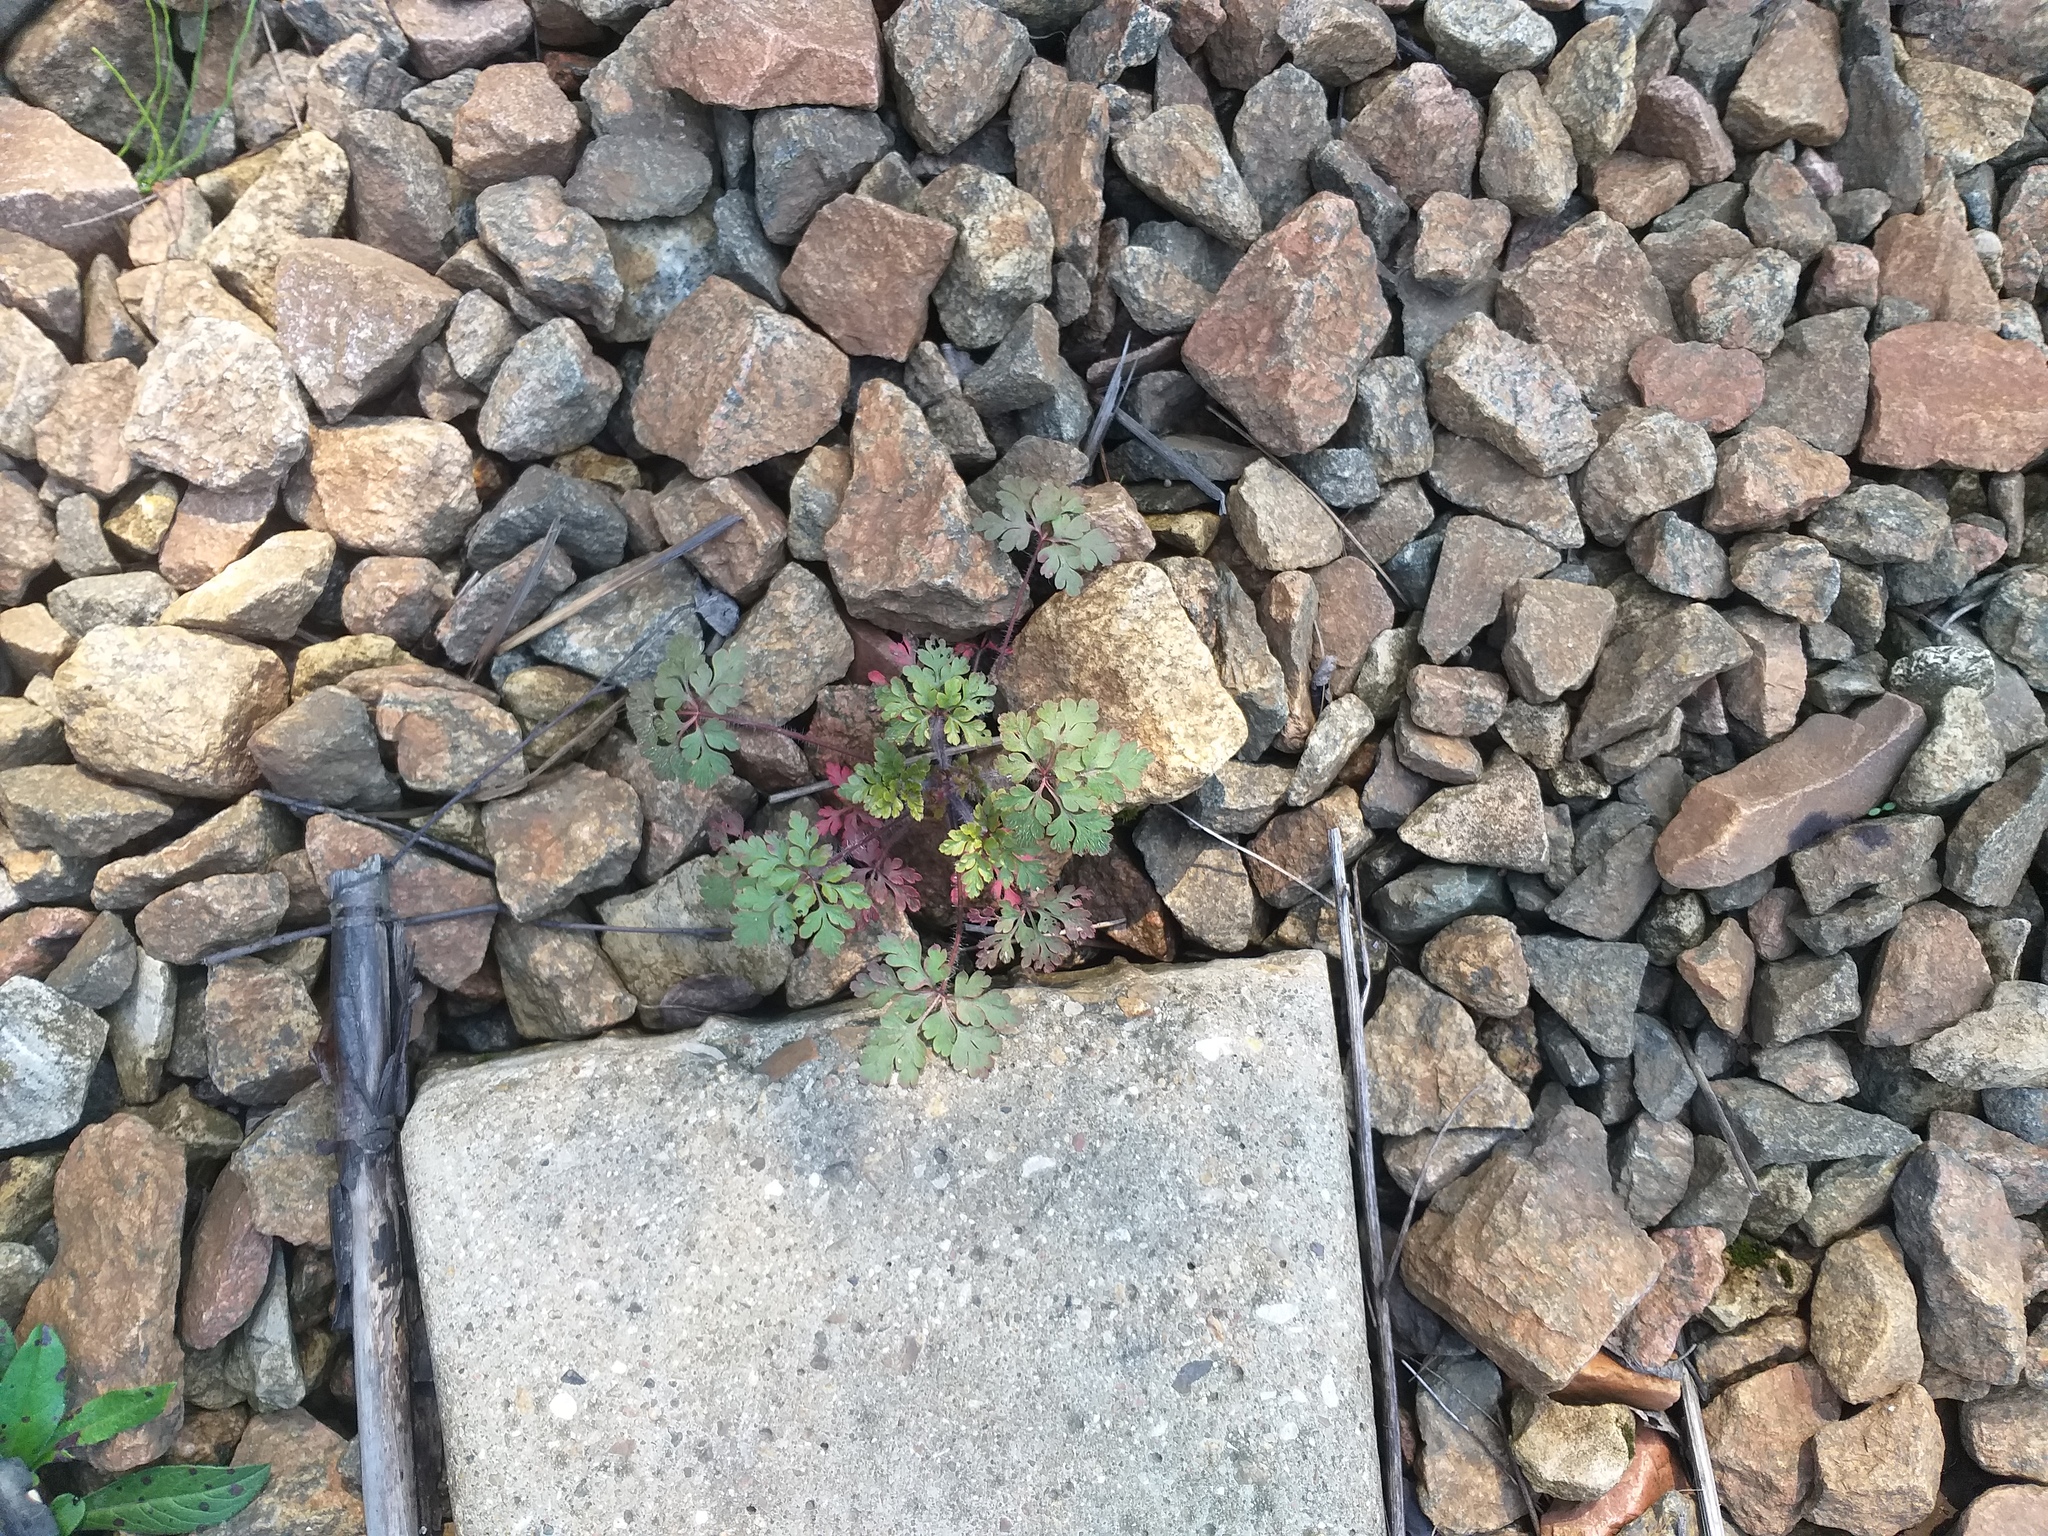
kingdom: Plantae
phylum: Tracheophyta
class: Magnoliopsida
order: Geraniales
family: Geraniaceae
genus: Geranium
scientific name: Geranium robertianum
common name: Herb-robert
